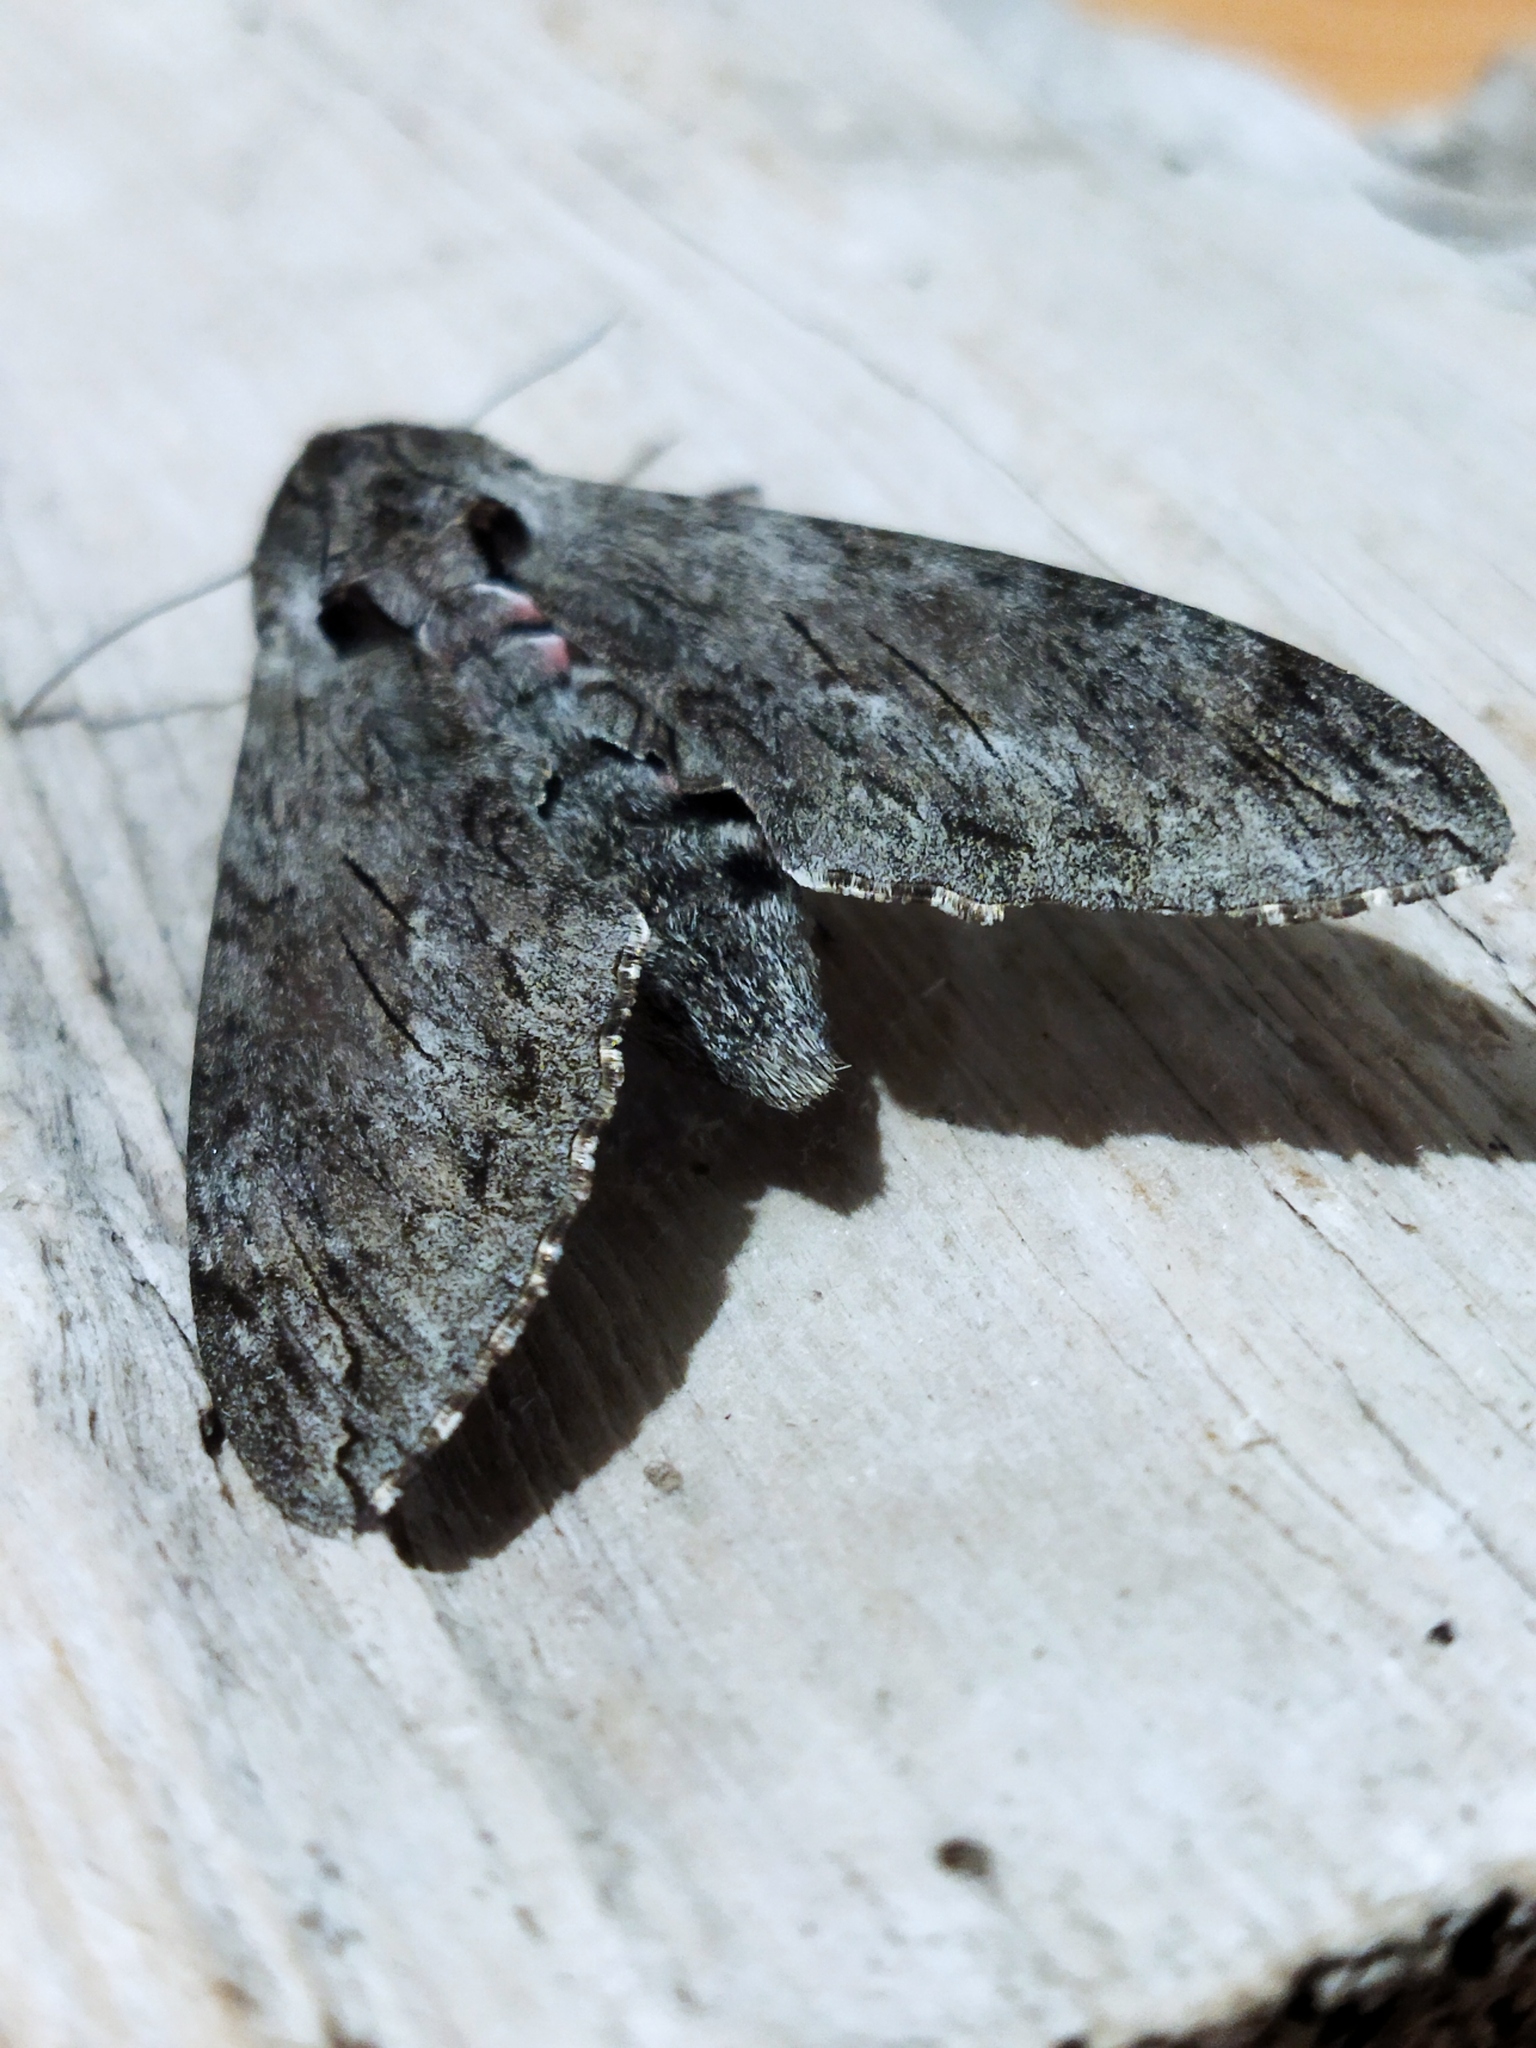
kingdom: Animalia
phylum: Arthropoda
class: Insecta
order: Lepidoptera
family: Sphingidae
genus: Agrius
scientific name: Agrius convolvuli
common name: Convolvulus hawkmoth
